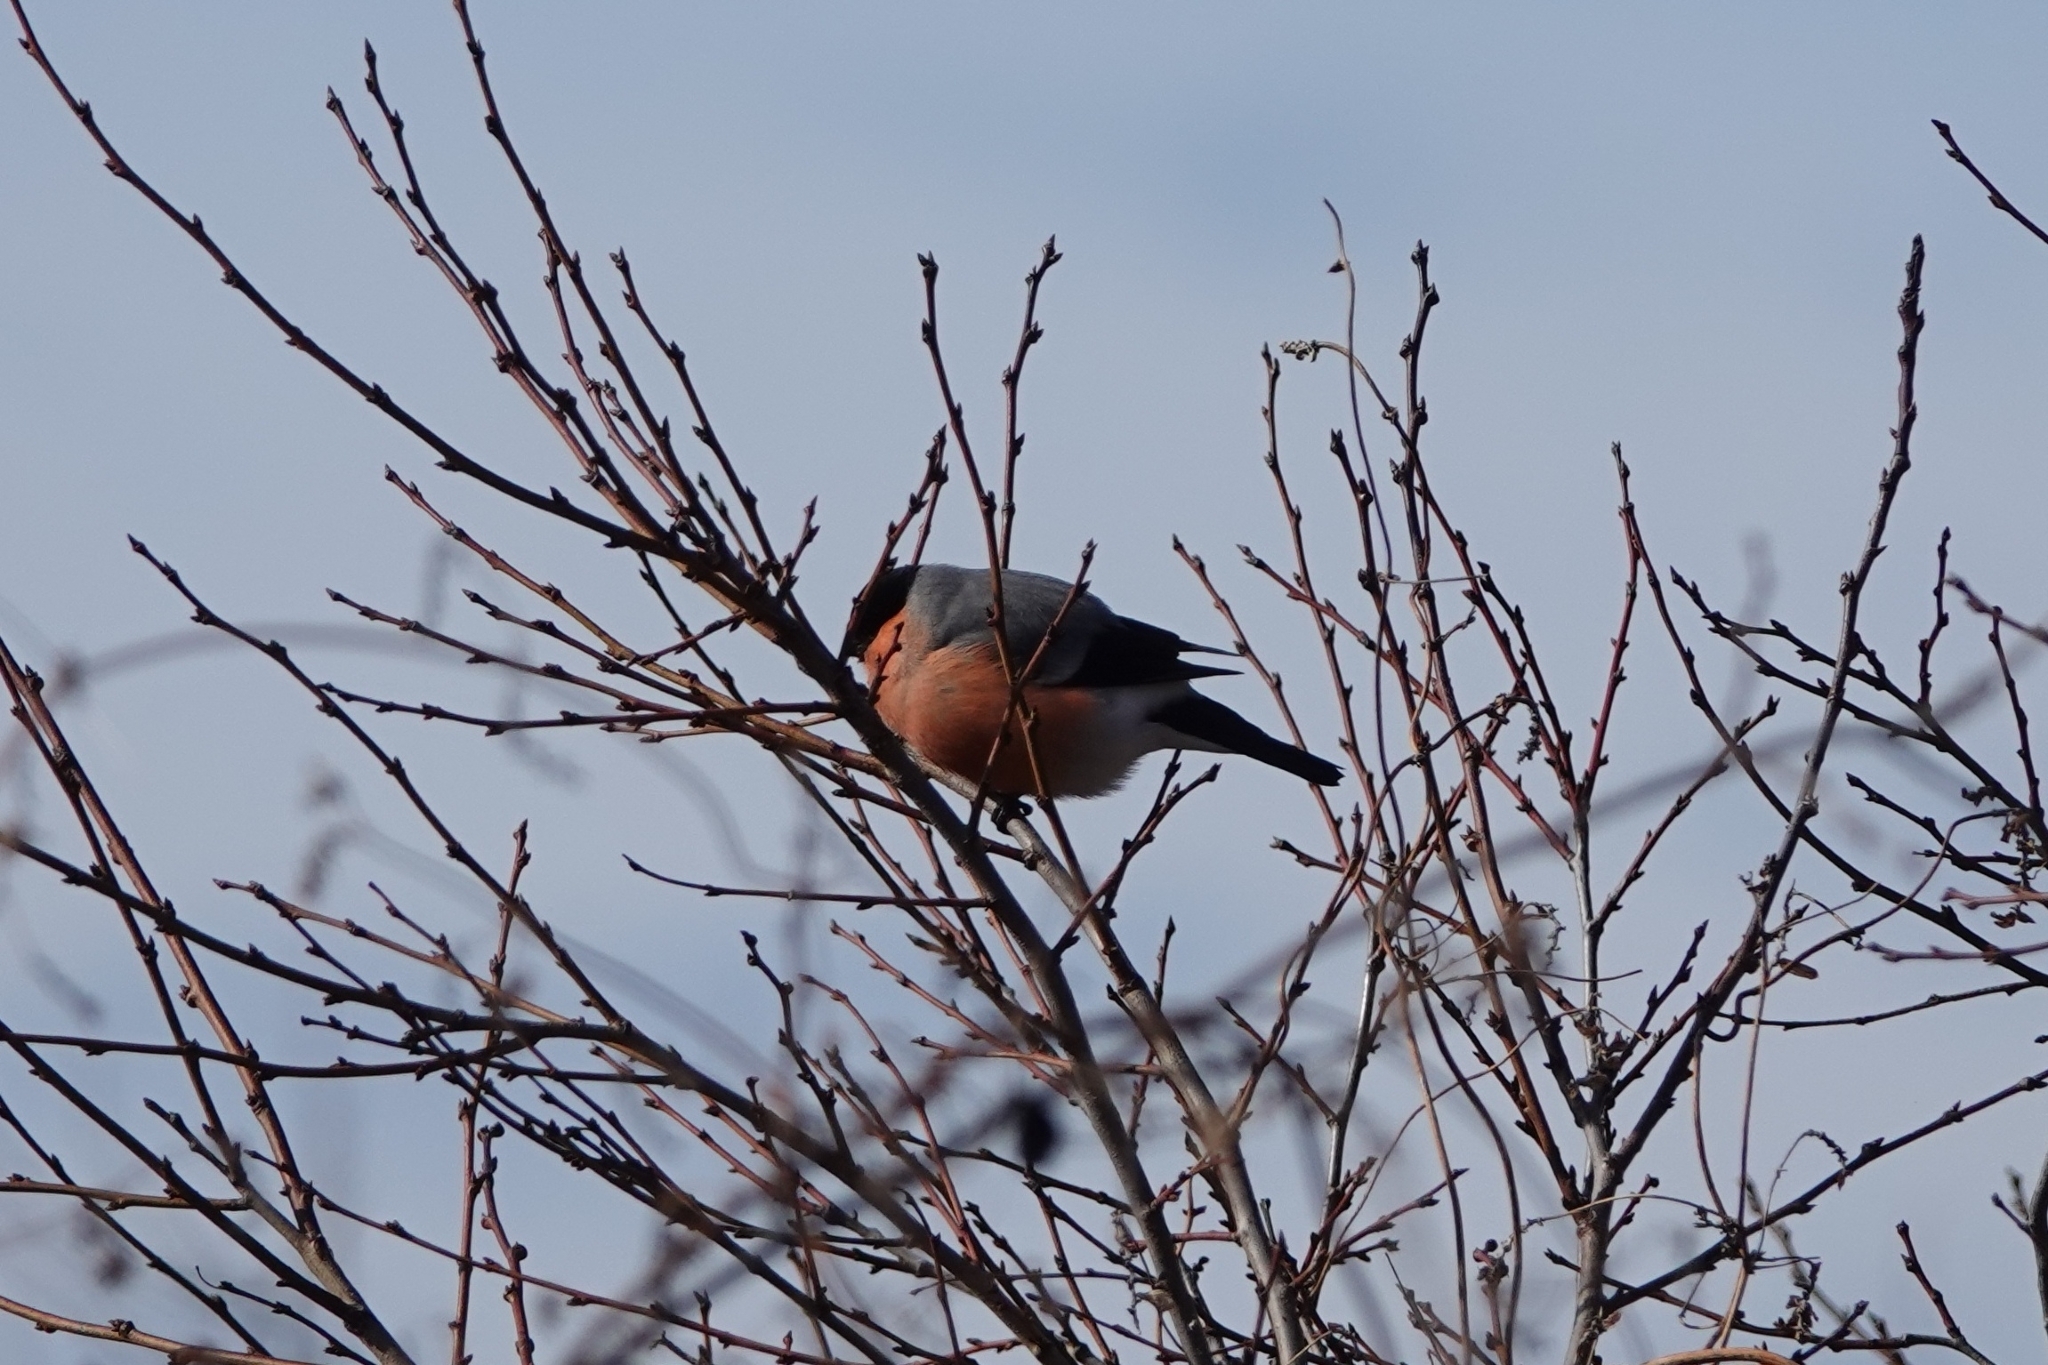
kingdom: Animalia
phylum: Chordata
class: Aves
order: Passeriformes
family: Fringillidae
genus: Pyrrhula
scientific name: Pyrrhula pyrrhula
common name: Eurasian bullfinch
